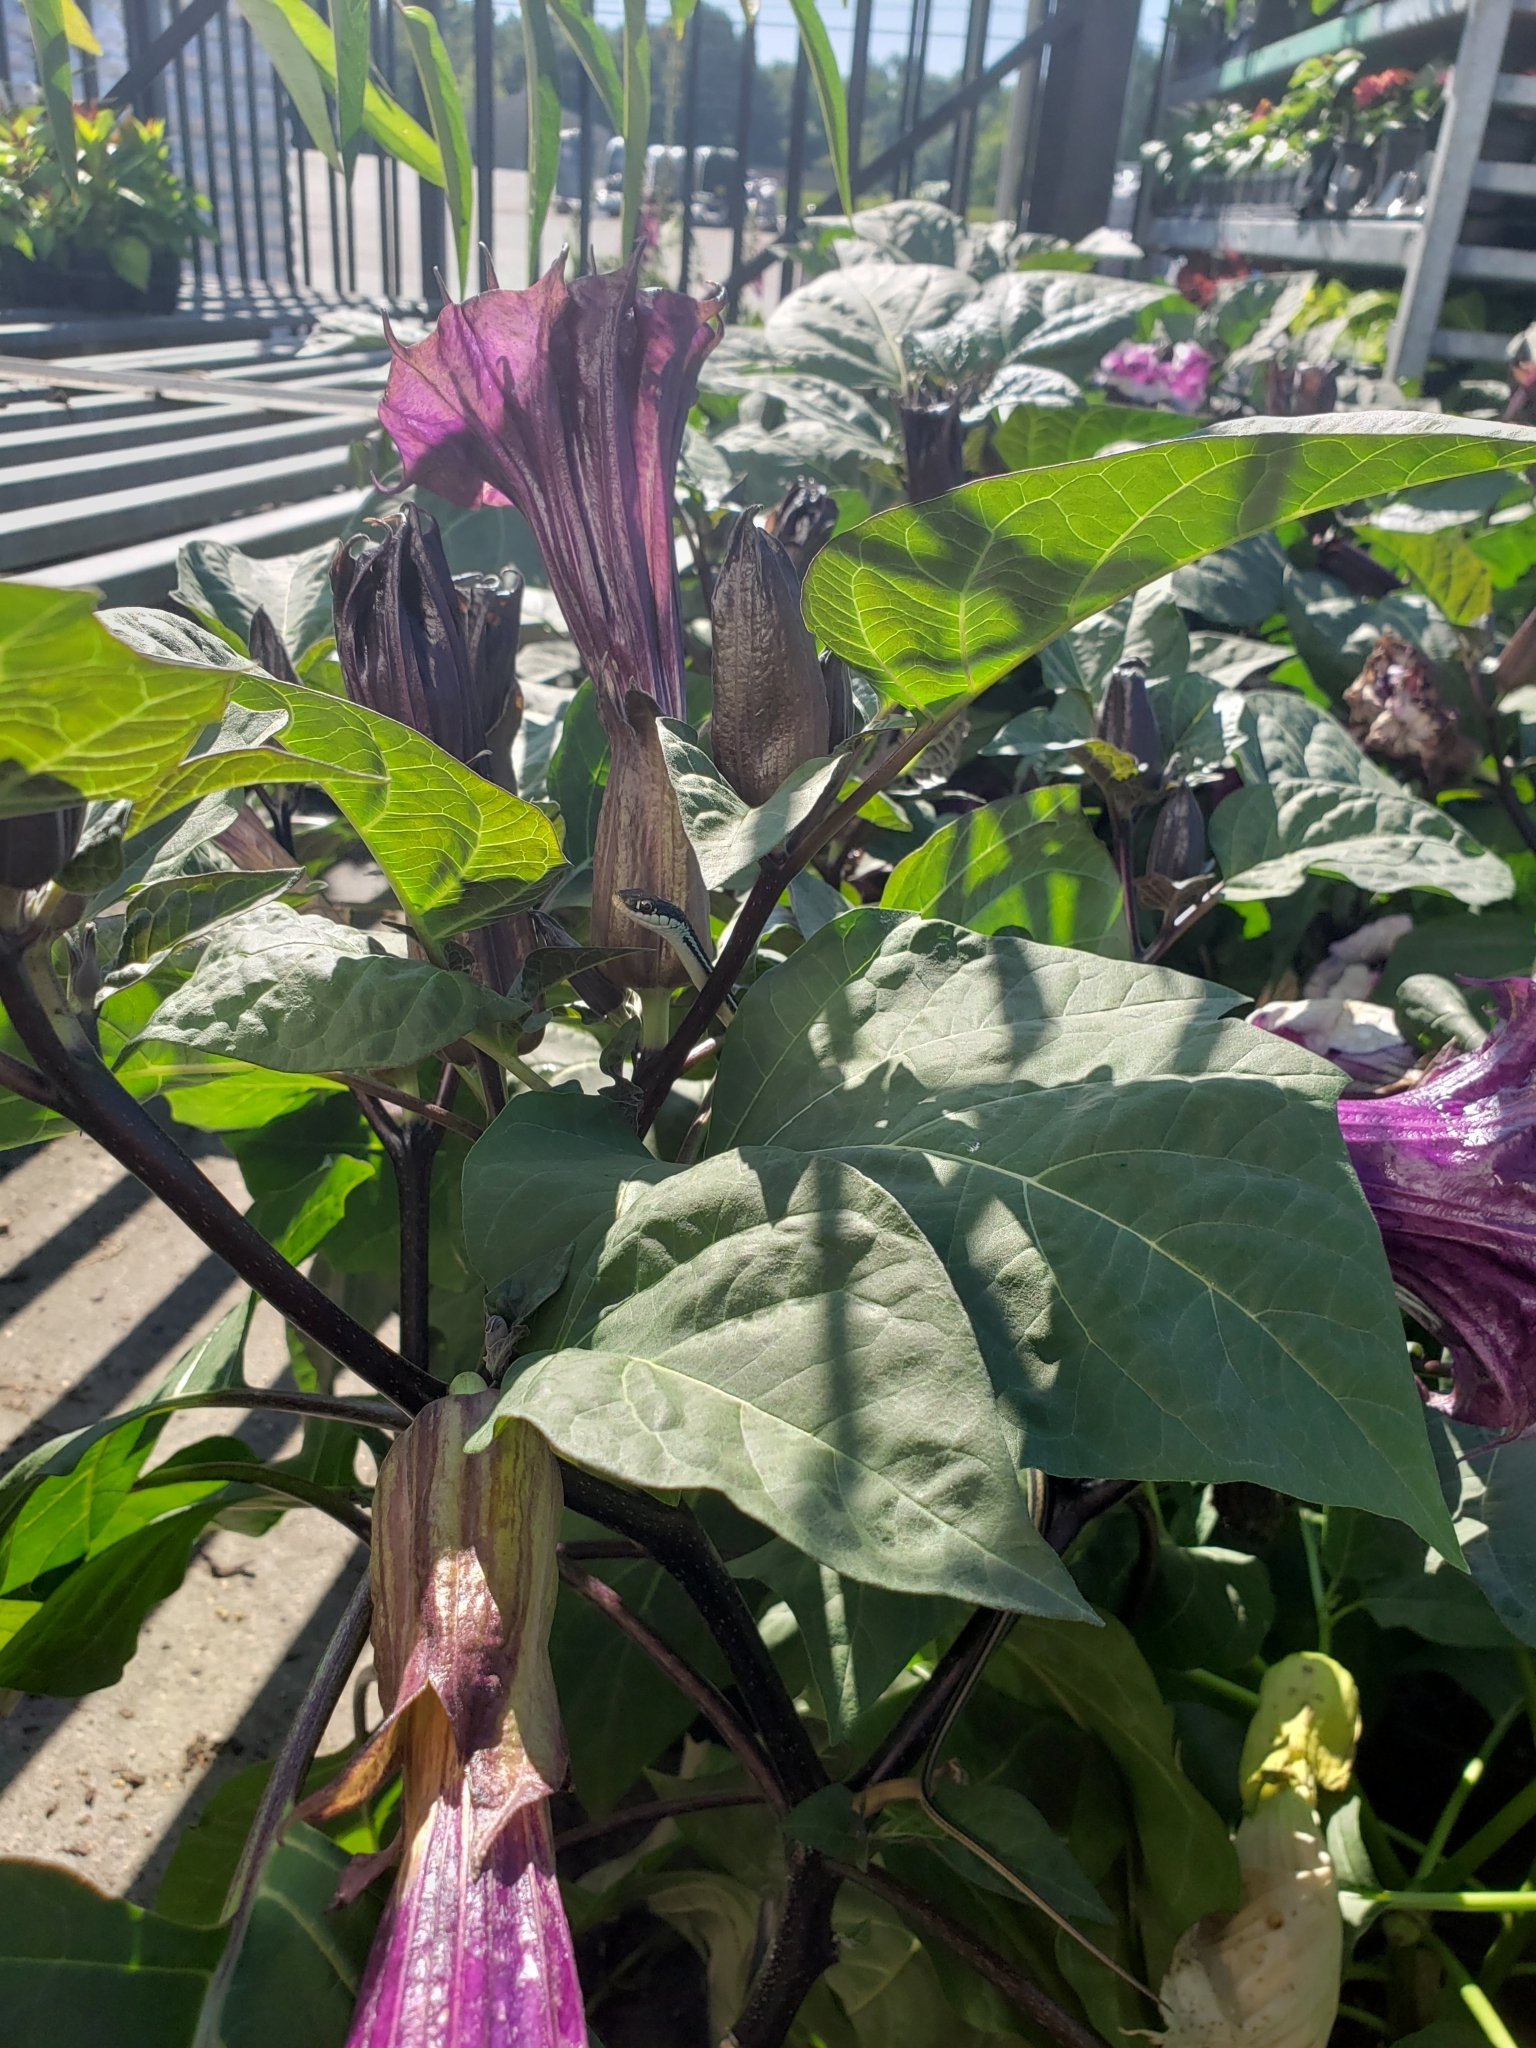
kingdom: Animalia
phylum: Chordata
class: Squamata
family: Colubridae
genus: Thamnophis
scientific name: Thamnophis proximus
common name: Western ribbon snake
